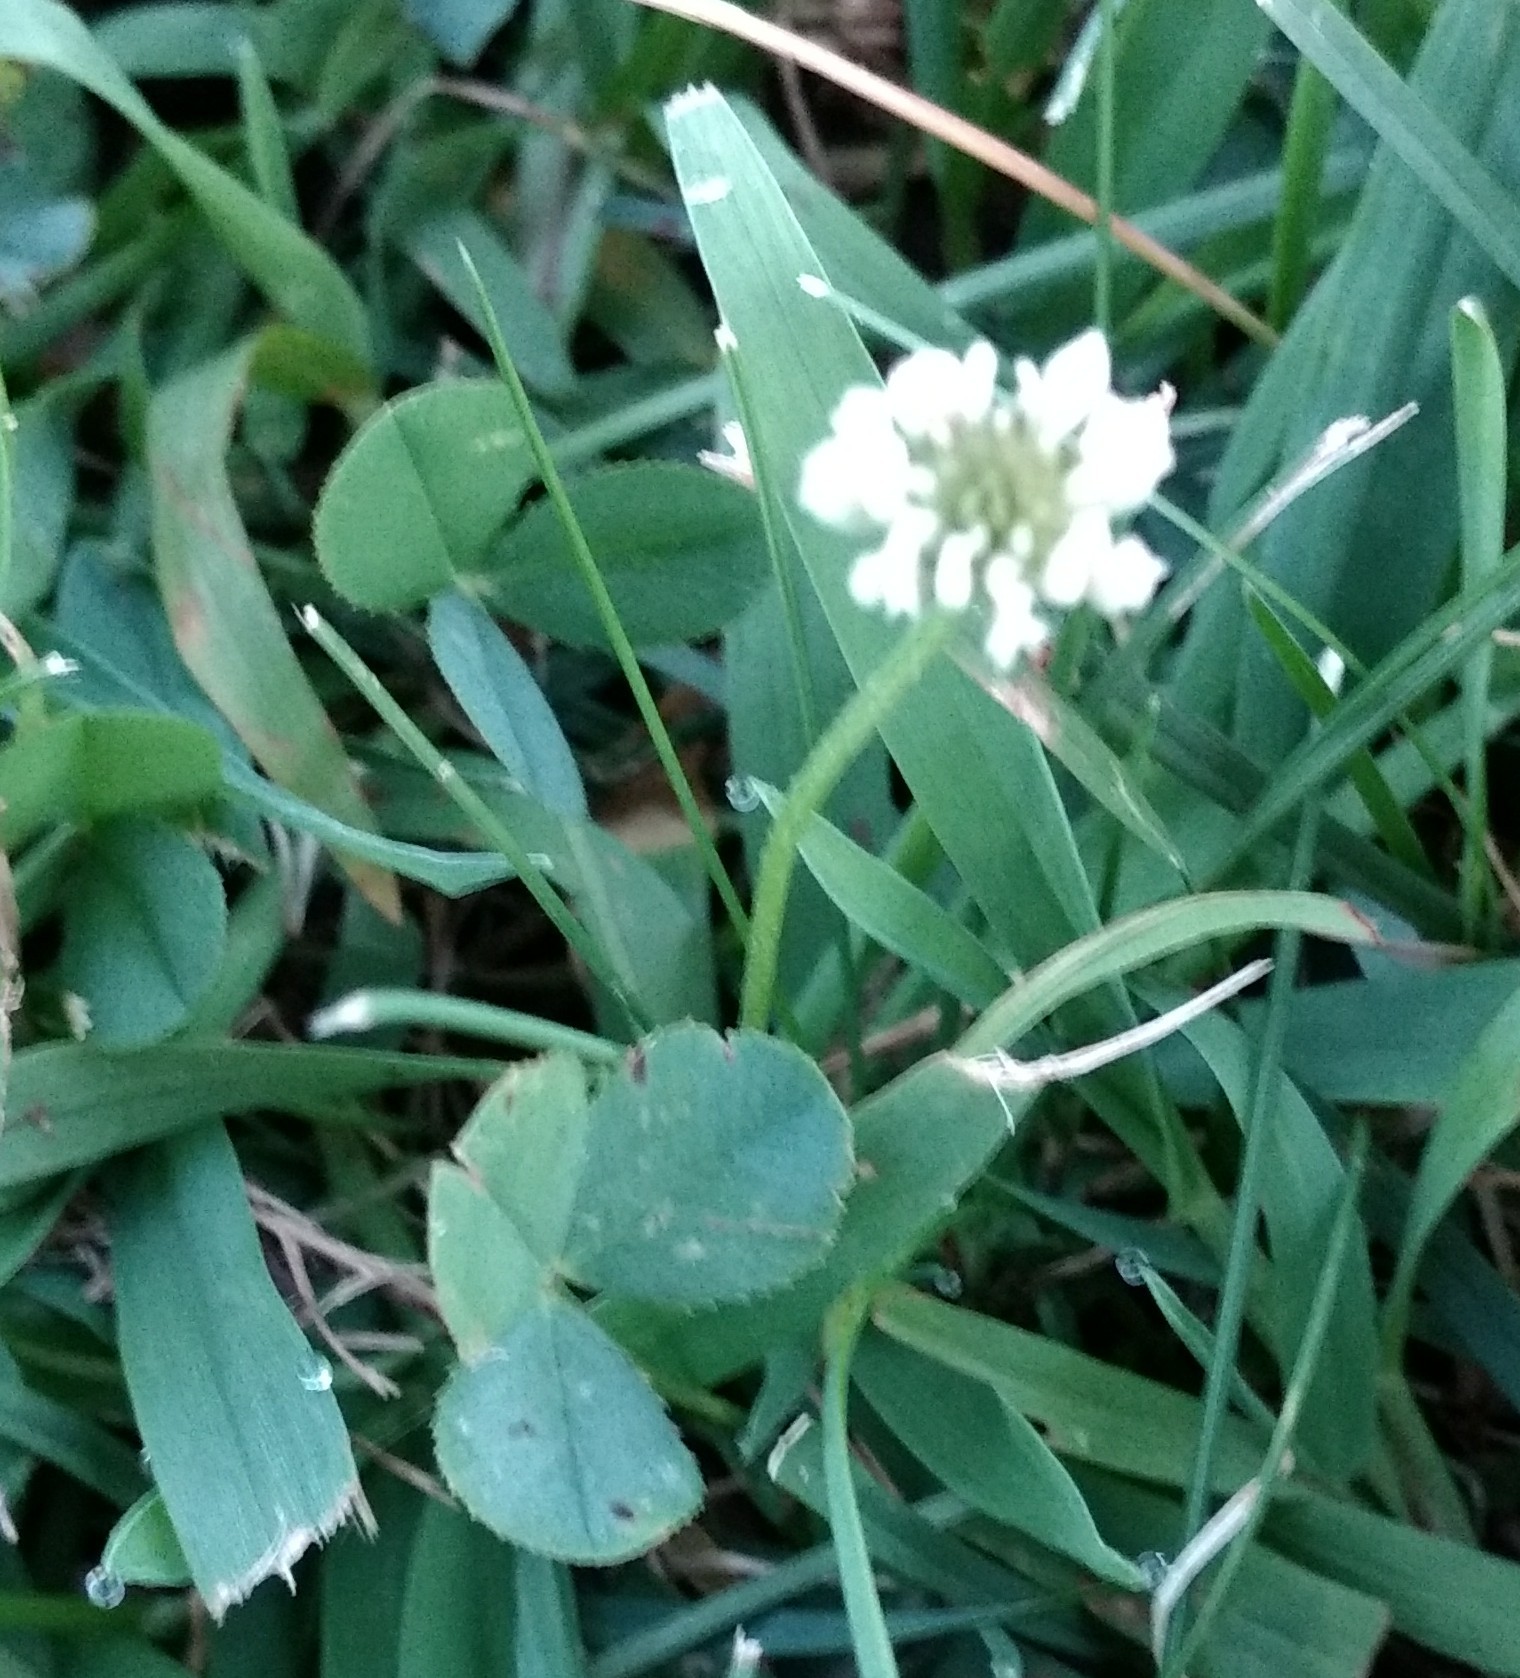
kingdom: Plantae
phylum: Tracheophyta
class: Magnoliopsida
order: Fabales
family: Fabaceae
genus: Trifolium
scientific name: Trifolium repens
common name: White clover
